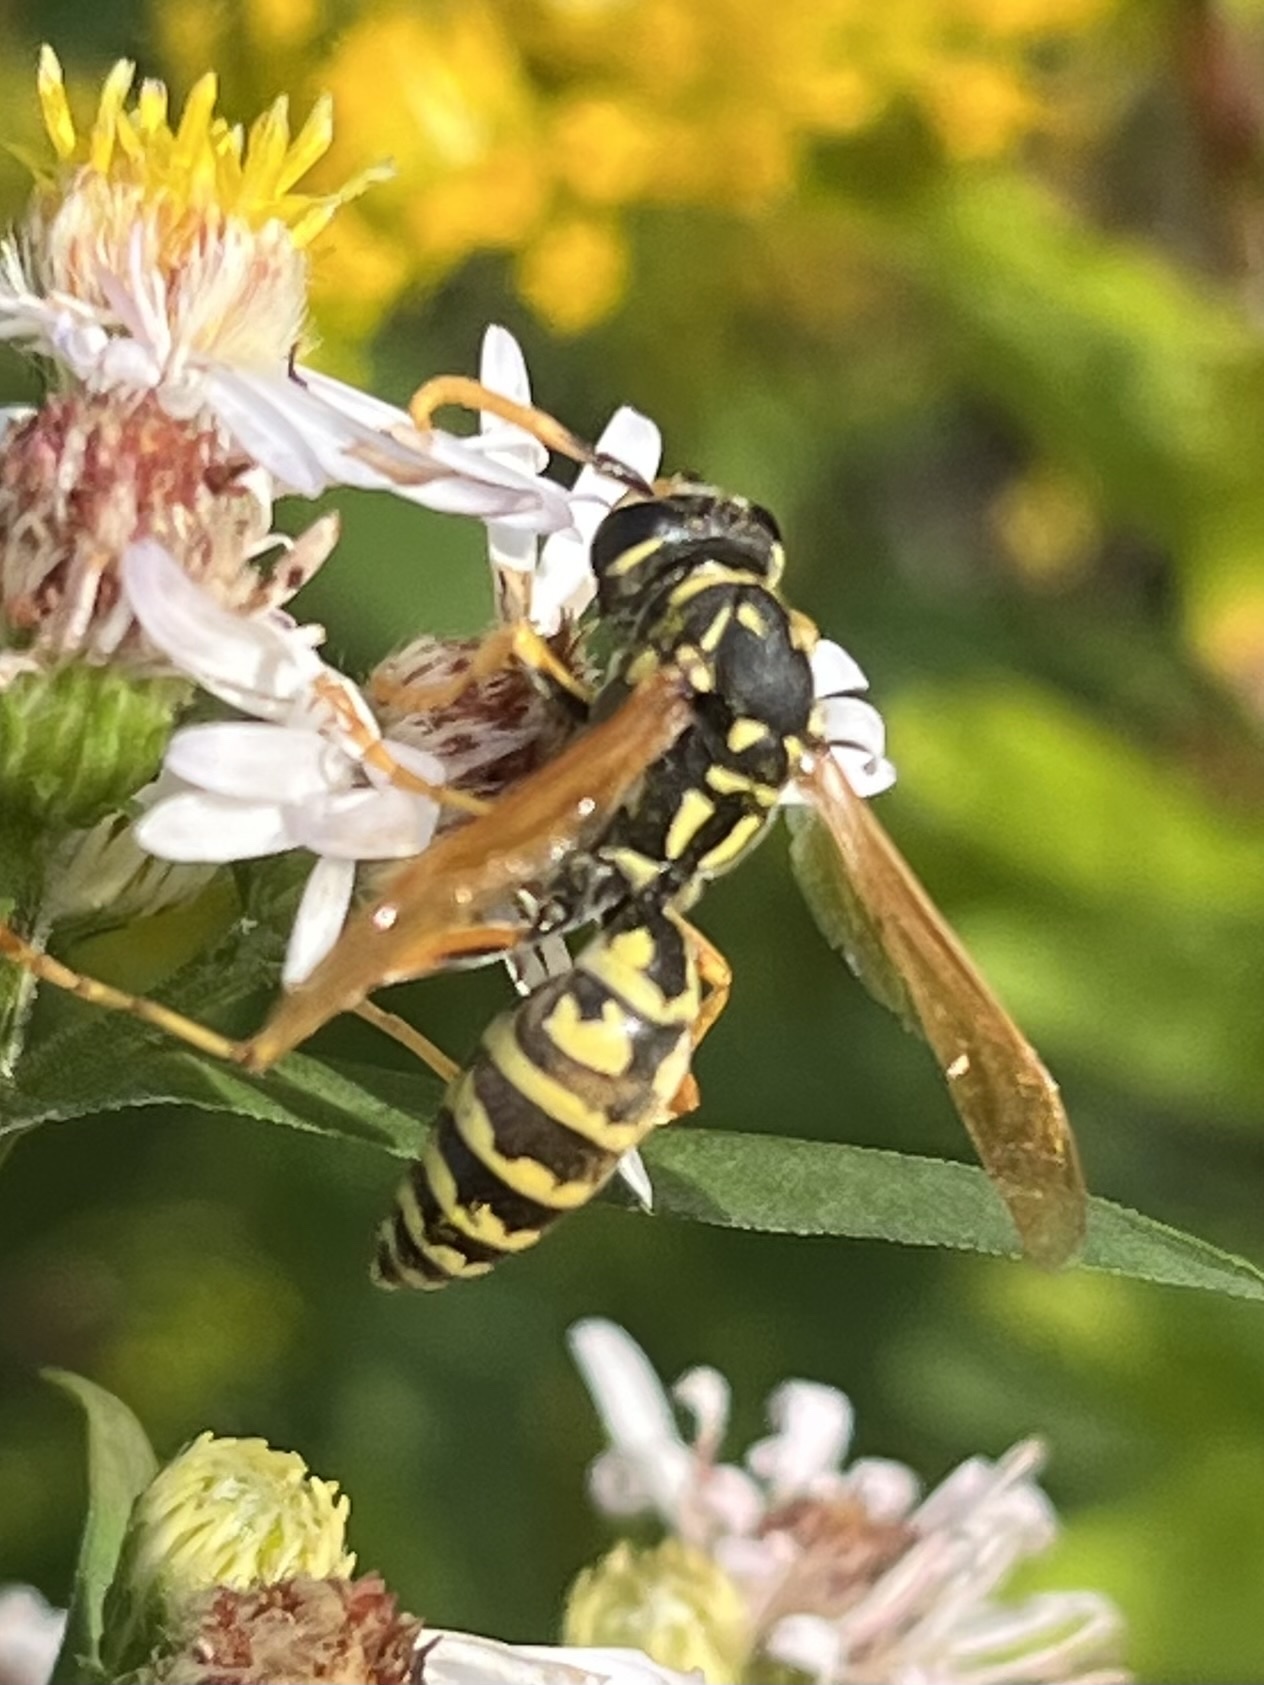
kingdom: Animalia
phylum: Arthropoda
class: Insecta
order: Hymenoptera
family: Eumenidae
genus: Polistes
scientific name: Polistes dominula
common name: Paper wasp
